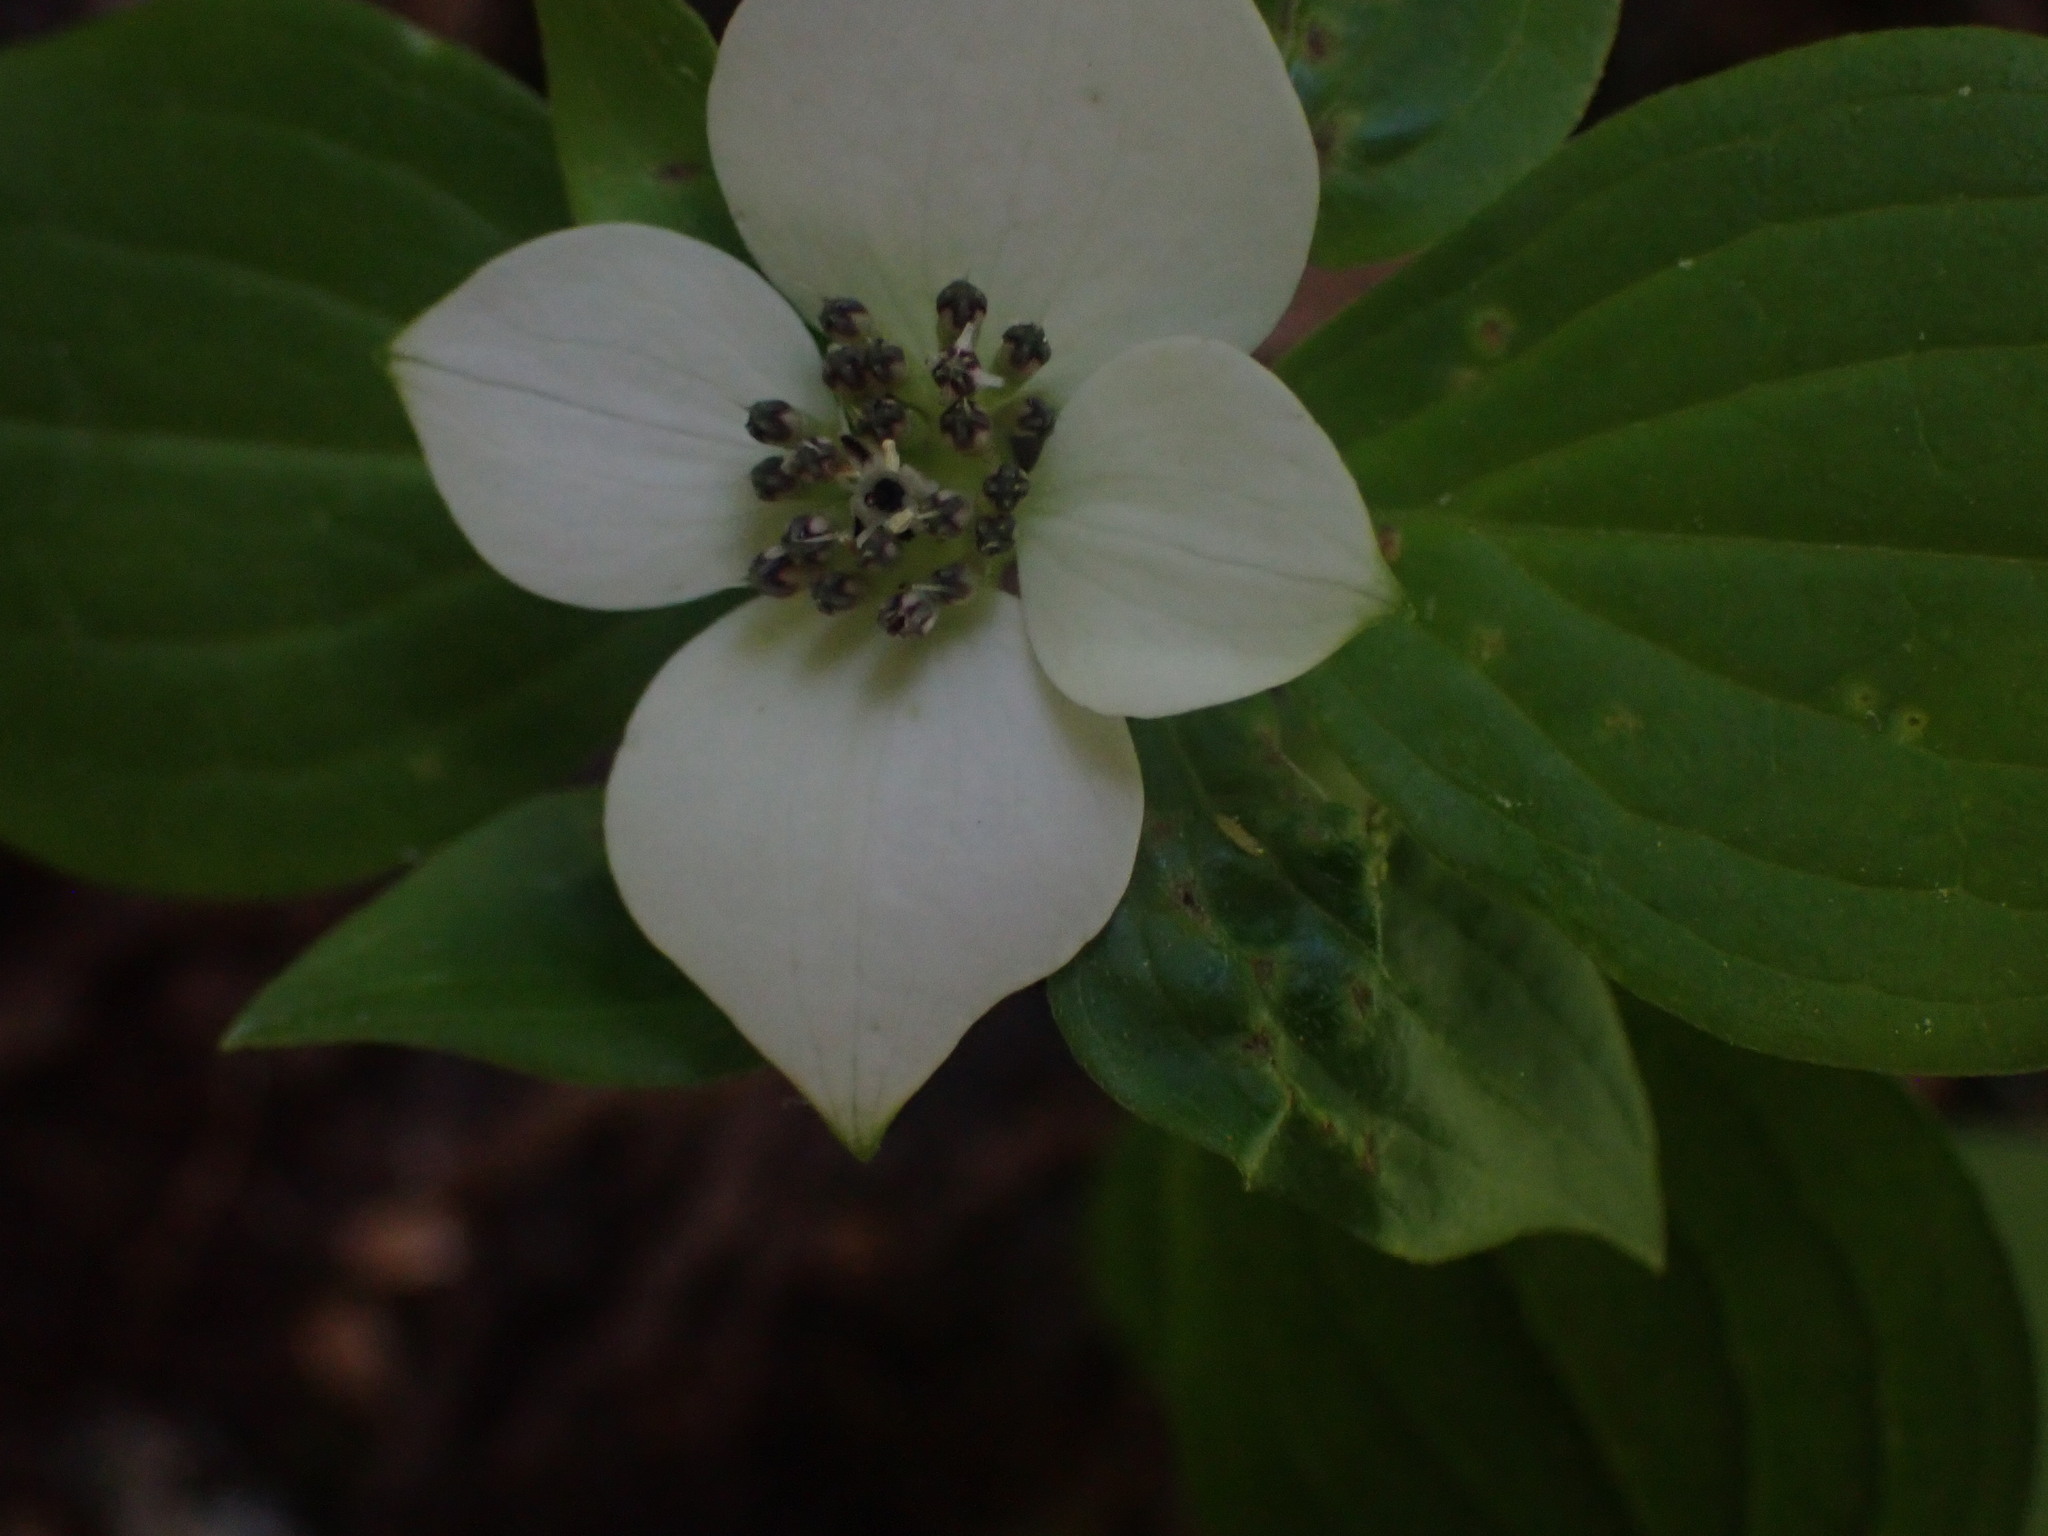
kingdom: Plantae
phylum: Tracheophyta
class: Magnoliopsida
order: Cornales
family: Cornaceae
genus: Cornus
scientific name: Cornus unalaschkensis
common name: Alaska bunchberry
